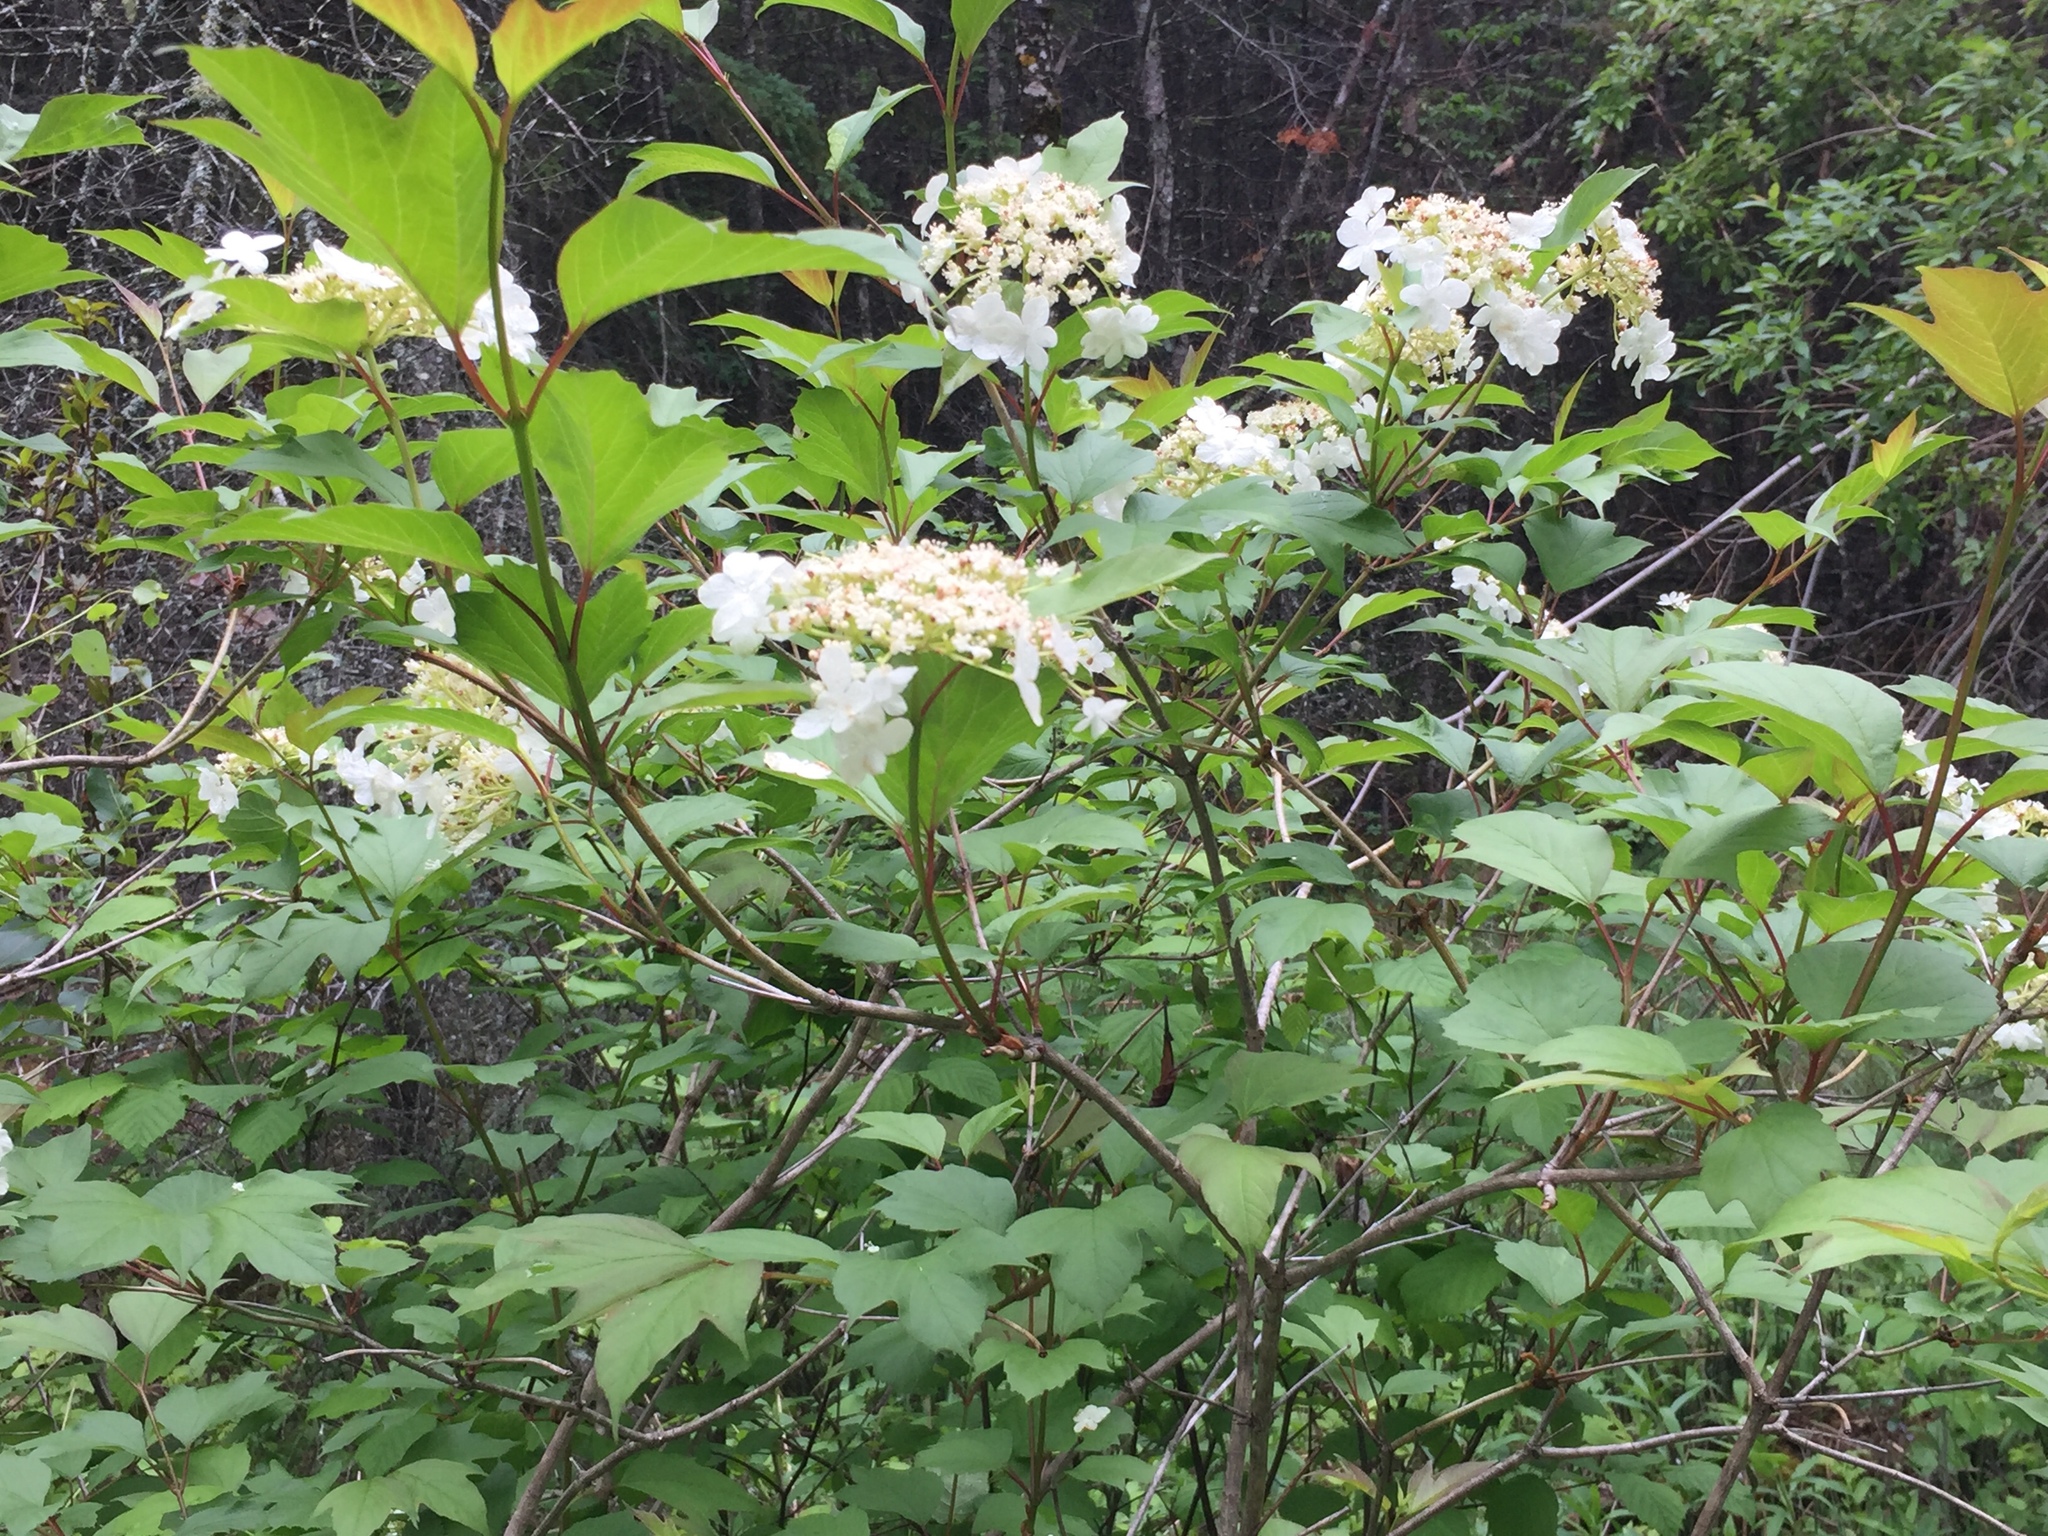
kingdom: Plantae
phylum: Tracheophyta
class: Magnoliopsida
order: Dipsacales
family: Viburnaceae
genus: Viburnum
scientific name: Viburnum trilobum
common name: American cranberrybush
